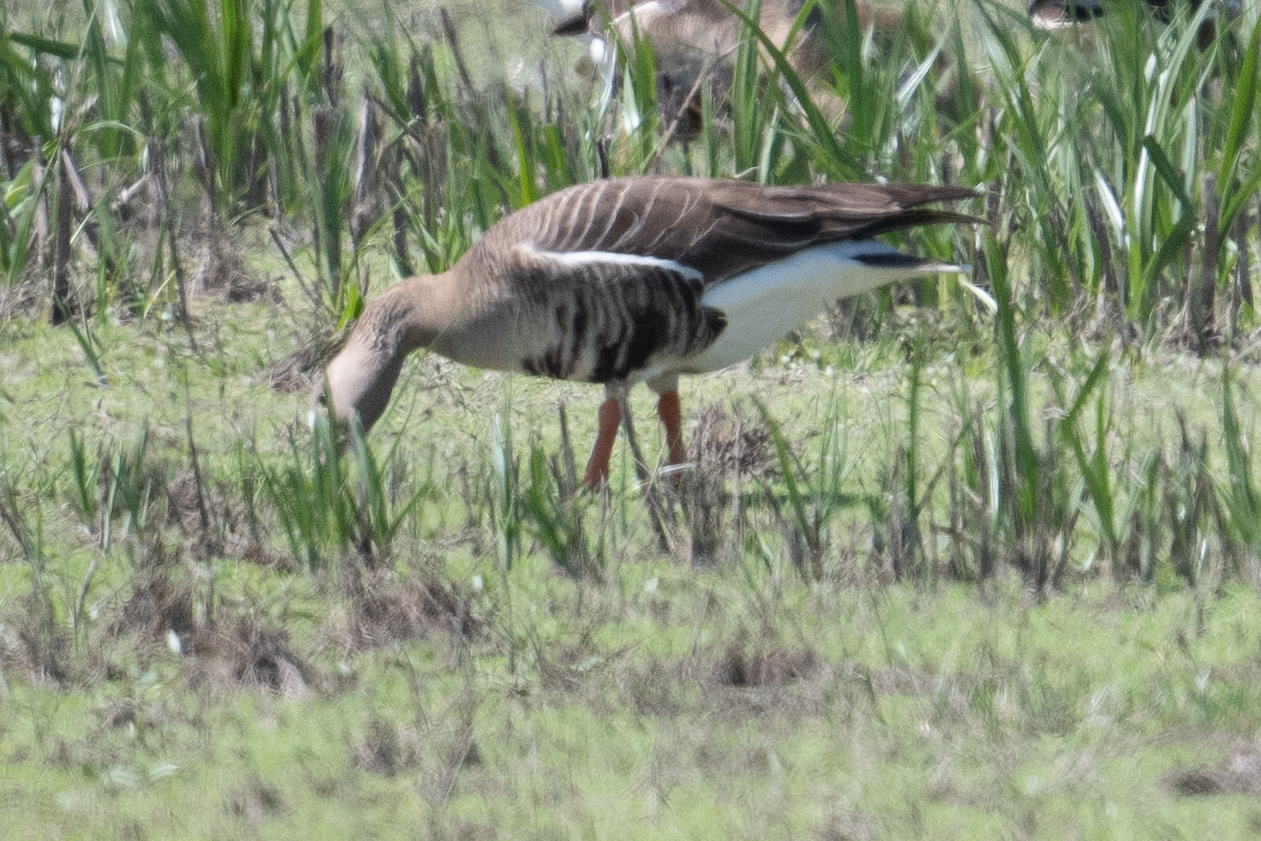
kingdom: Animalia
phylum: Chordata
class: Aves
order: Anseriformes
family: Anatidae
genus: Anser
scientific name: Anser albifrons
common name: Greater white-fronted goose
